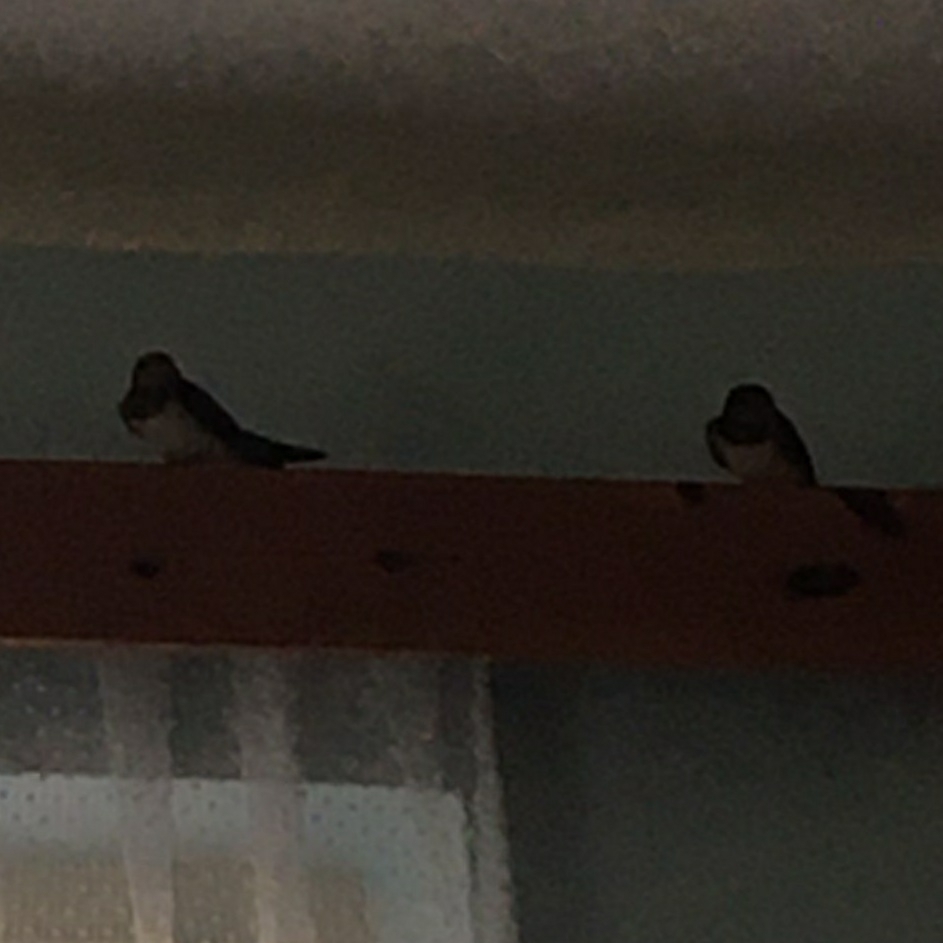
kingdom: Animalia
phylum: Chordata
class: Aves
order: Passeriformes
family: Hirundinidae
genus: Hirundo
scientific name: Hirundo rustica
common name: Barn swallow
